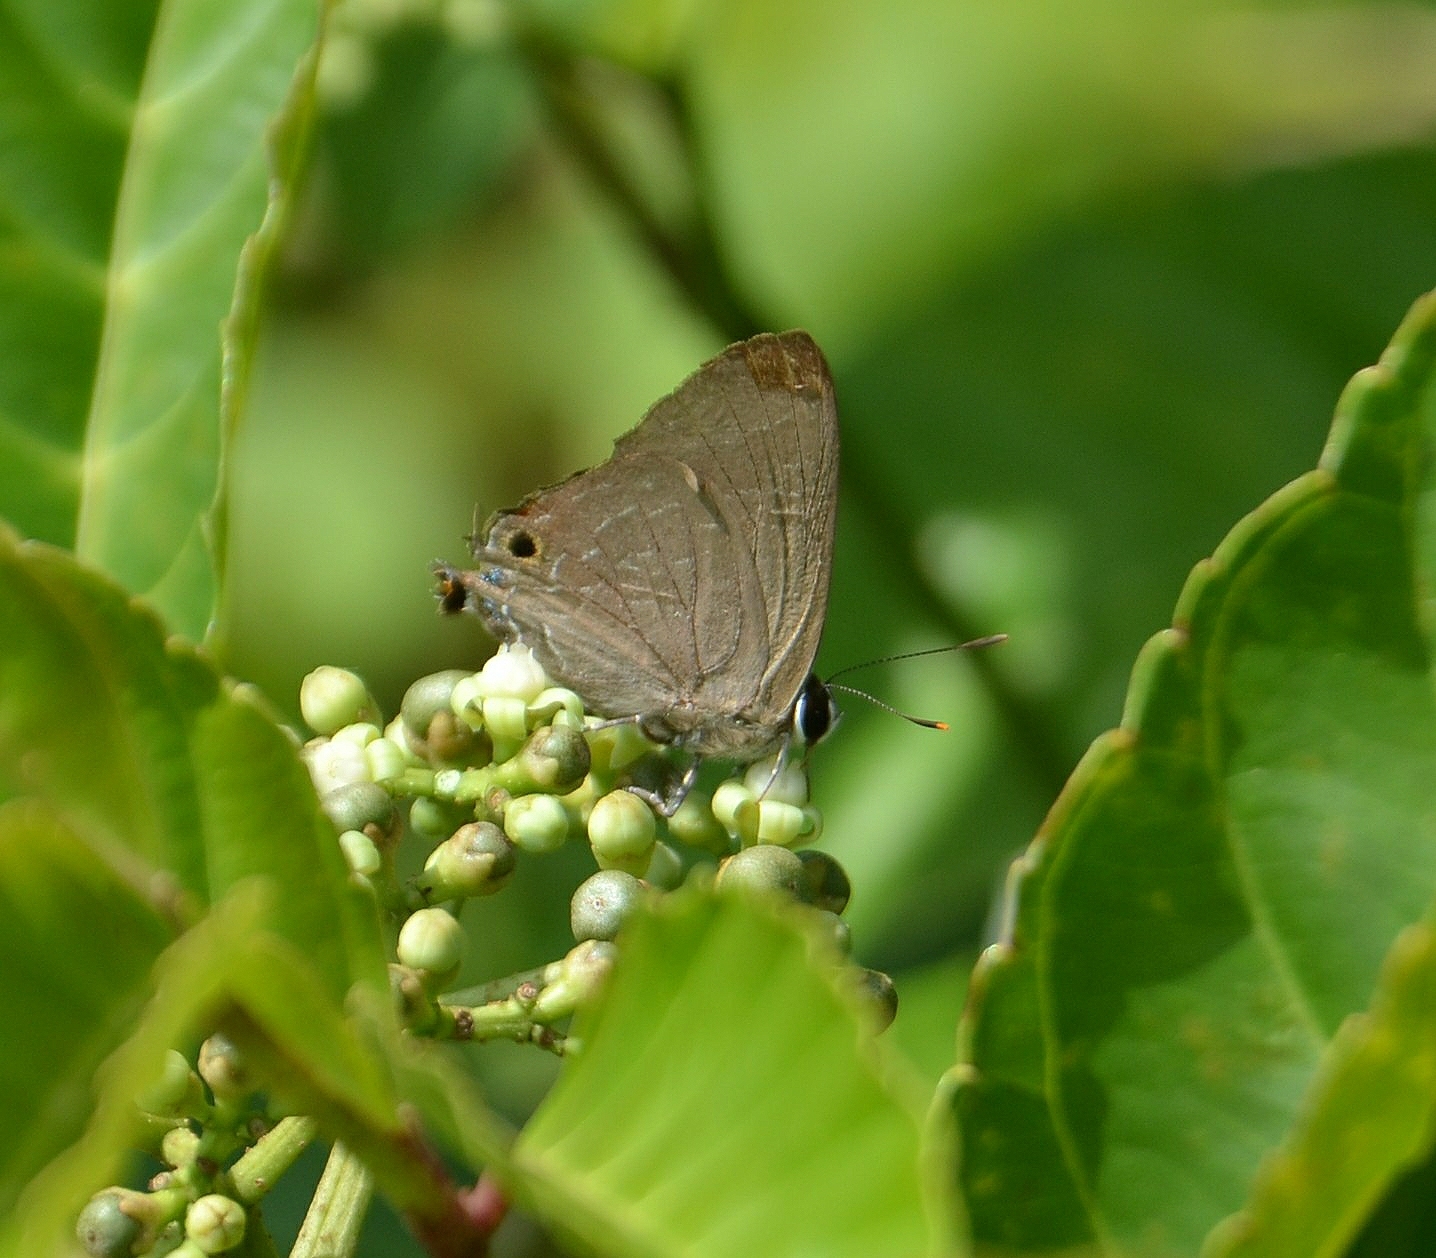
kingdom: Animalia
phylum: Arthropoda
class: Insecta
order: Lepidoptera
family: Lycaenidae
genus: Deudorix
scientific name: Deudorix epijarbas
